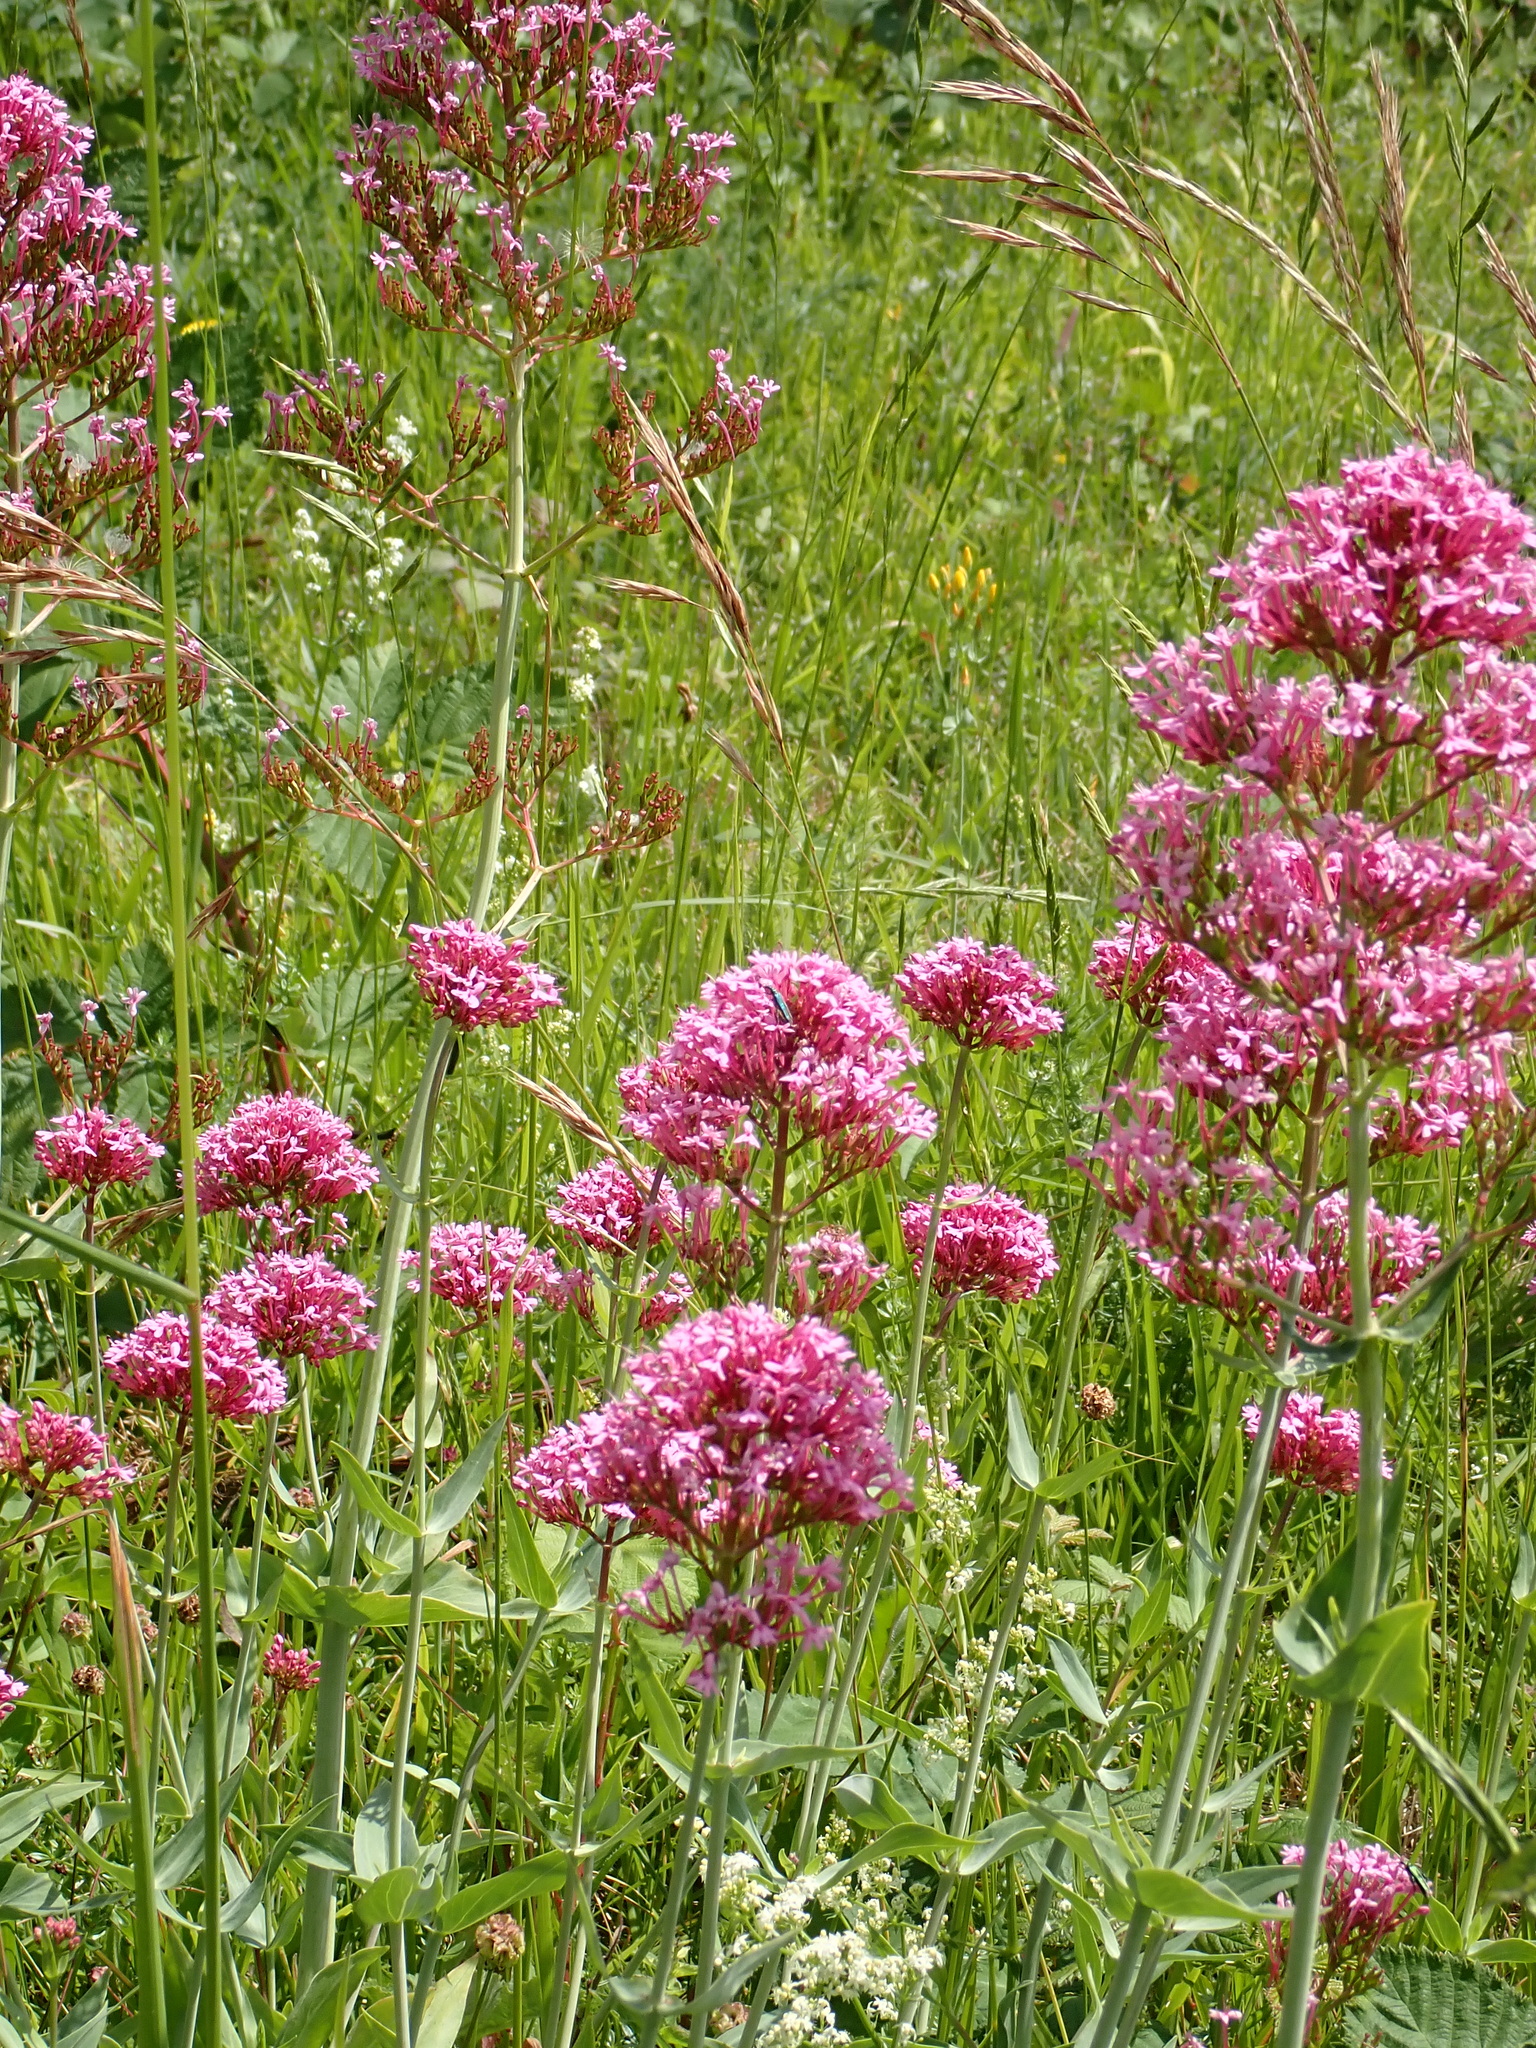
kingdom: Plantae
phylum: Tracheophyta
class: Magnoliopsida
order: Dipsacales
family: Caprifoliaceae
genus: Centranthus
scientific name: Centranthus ruber
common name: Red valerian
